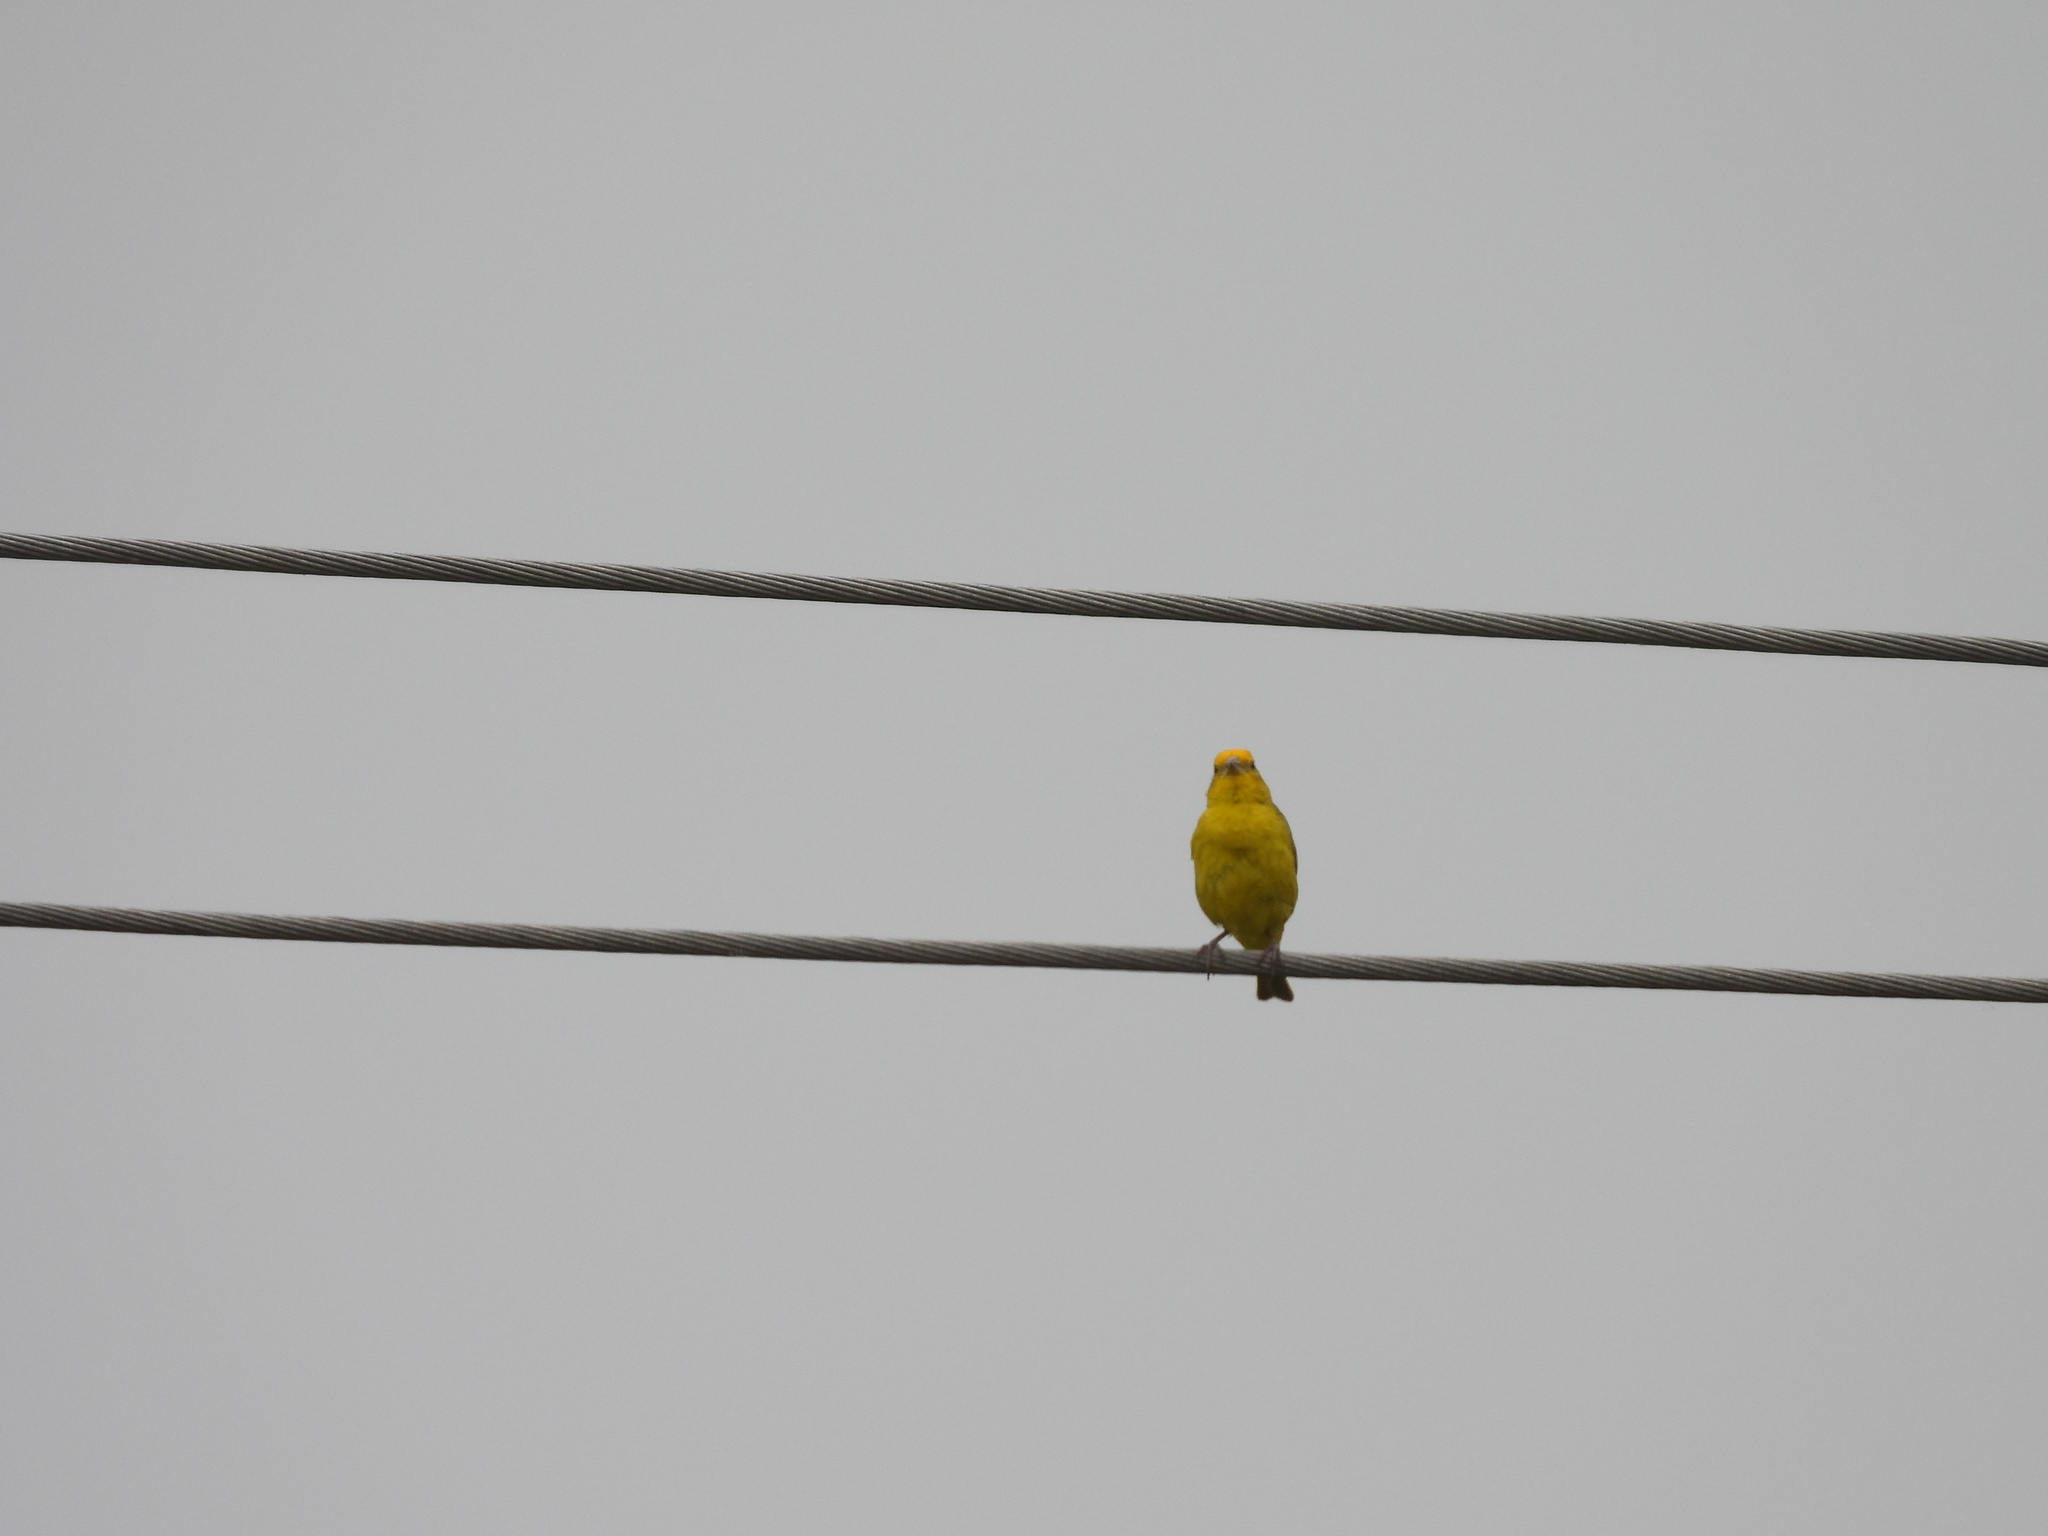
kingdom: Animalia
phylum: Chordata
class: Aves
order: Passeriformes
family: Thraupidae
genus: Sicalis
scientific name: Sicalis flaveola
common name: Saffron finch
